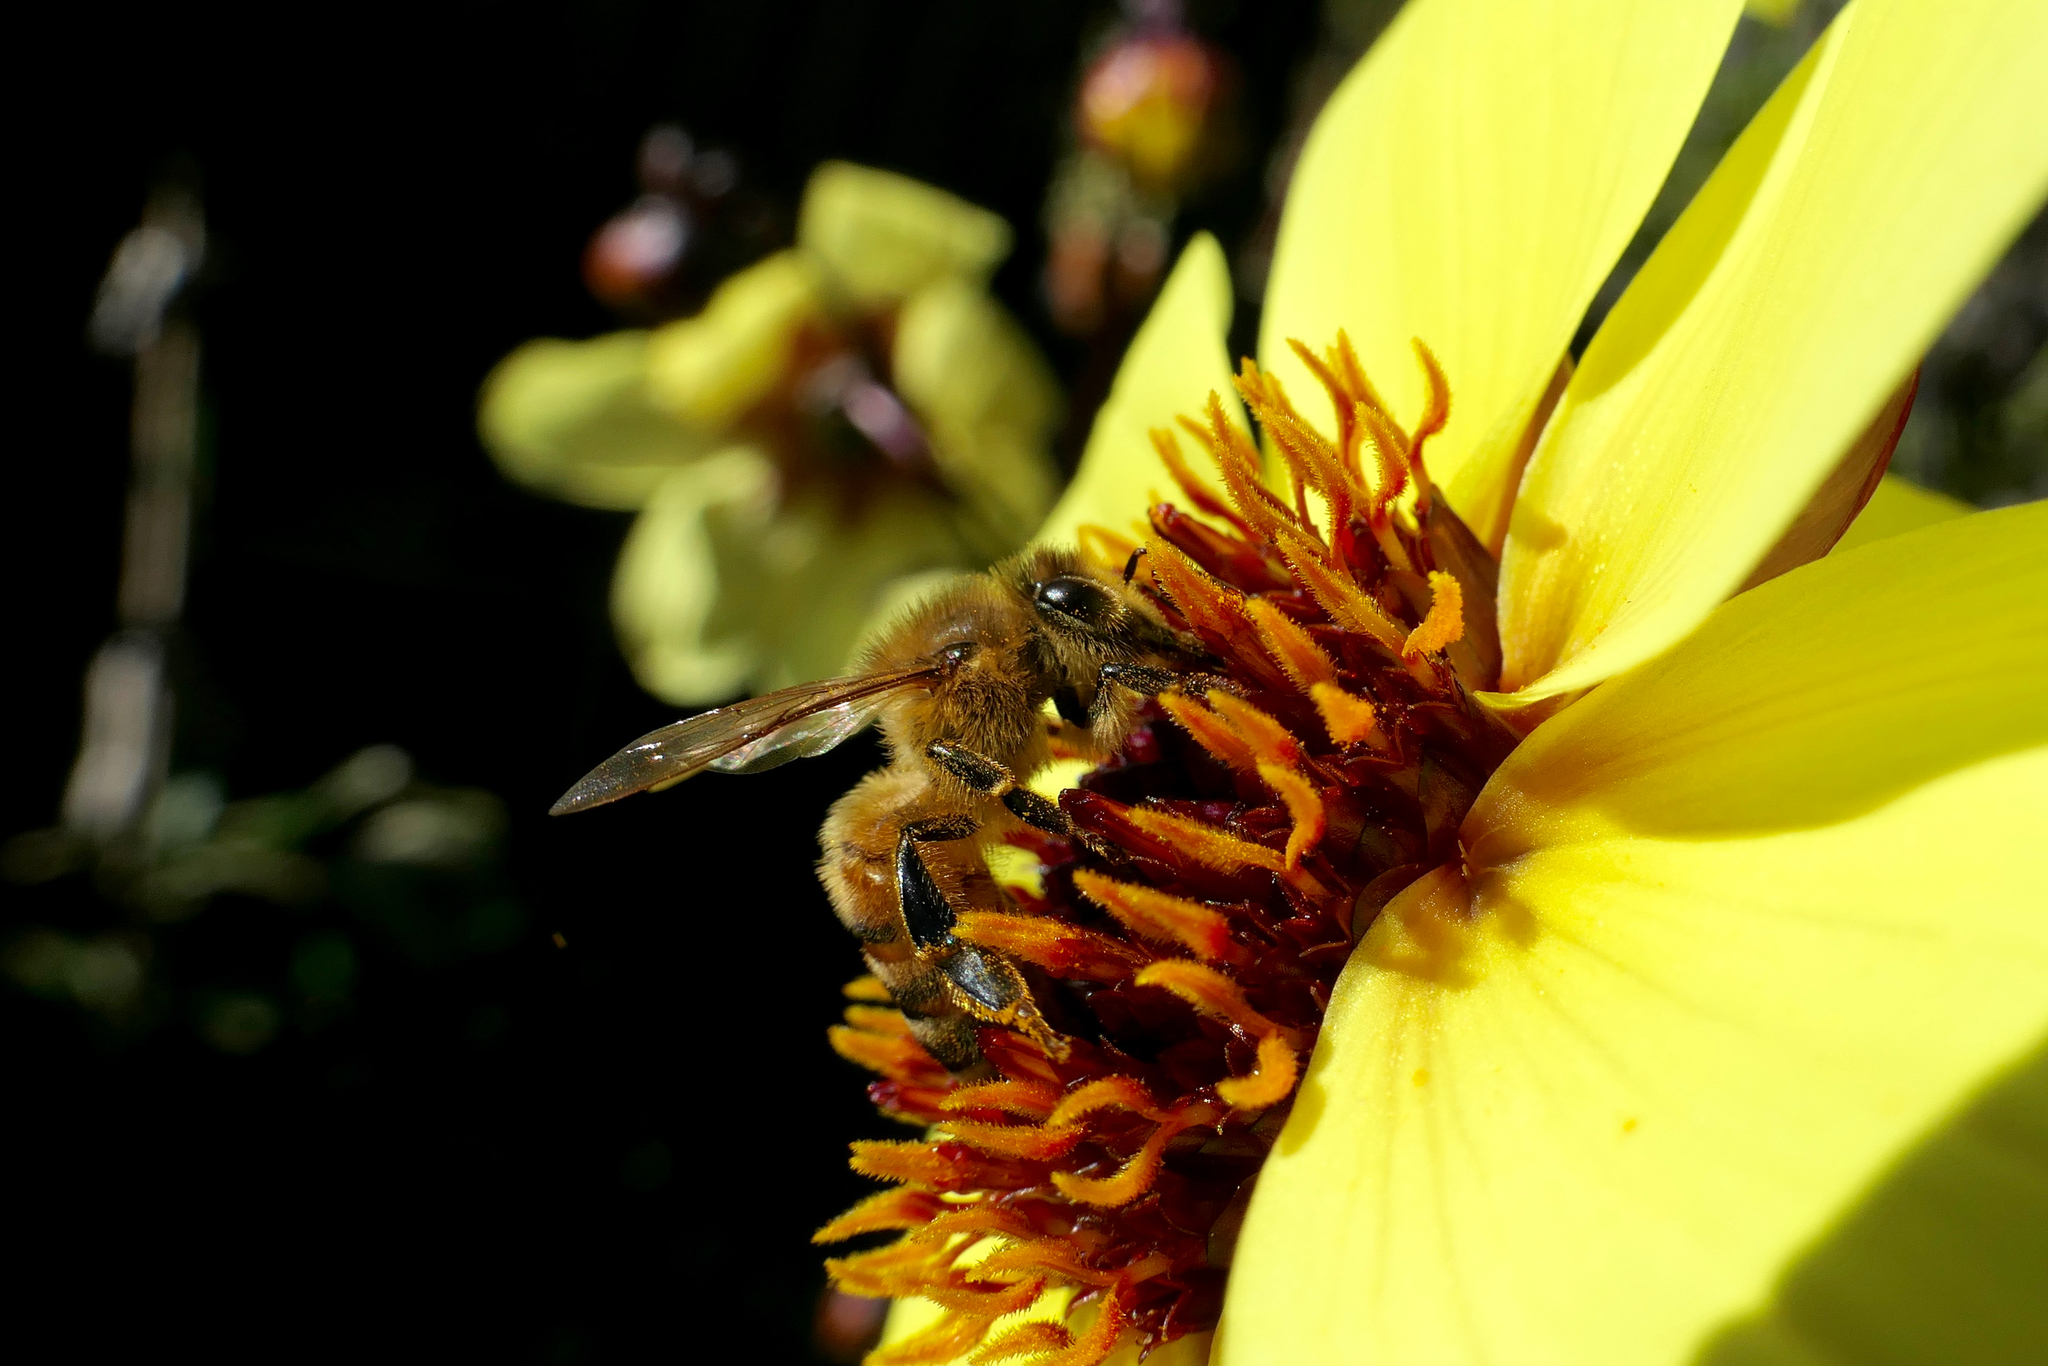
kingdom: Animalia
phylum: Arthropoda
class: Insecta
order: Hymenoptera
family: Apidae
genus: Apis
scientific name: Apis mellifera
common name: Honey bee
